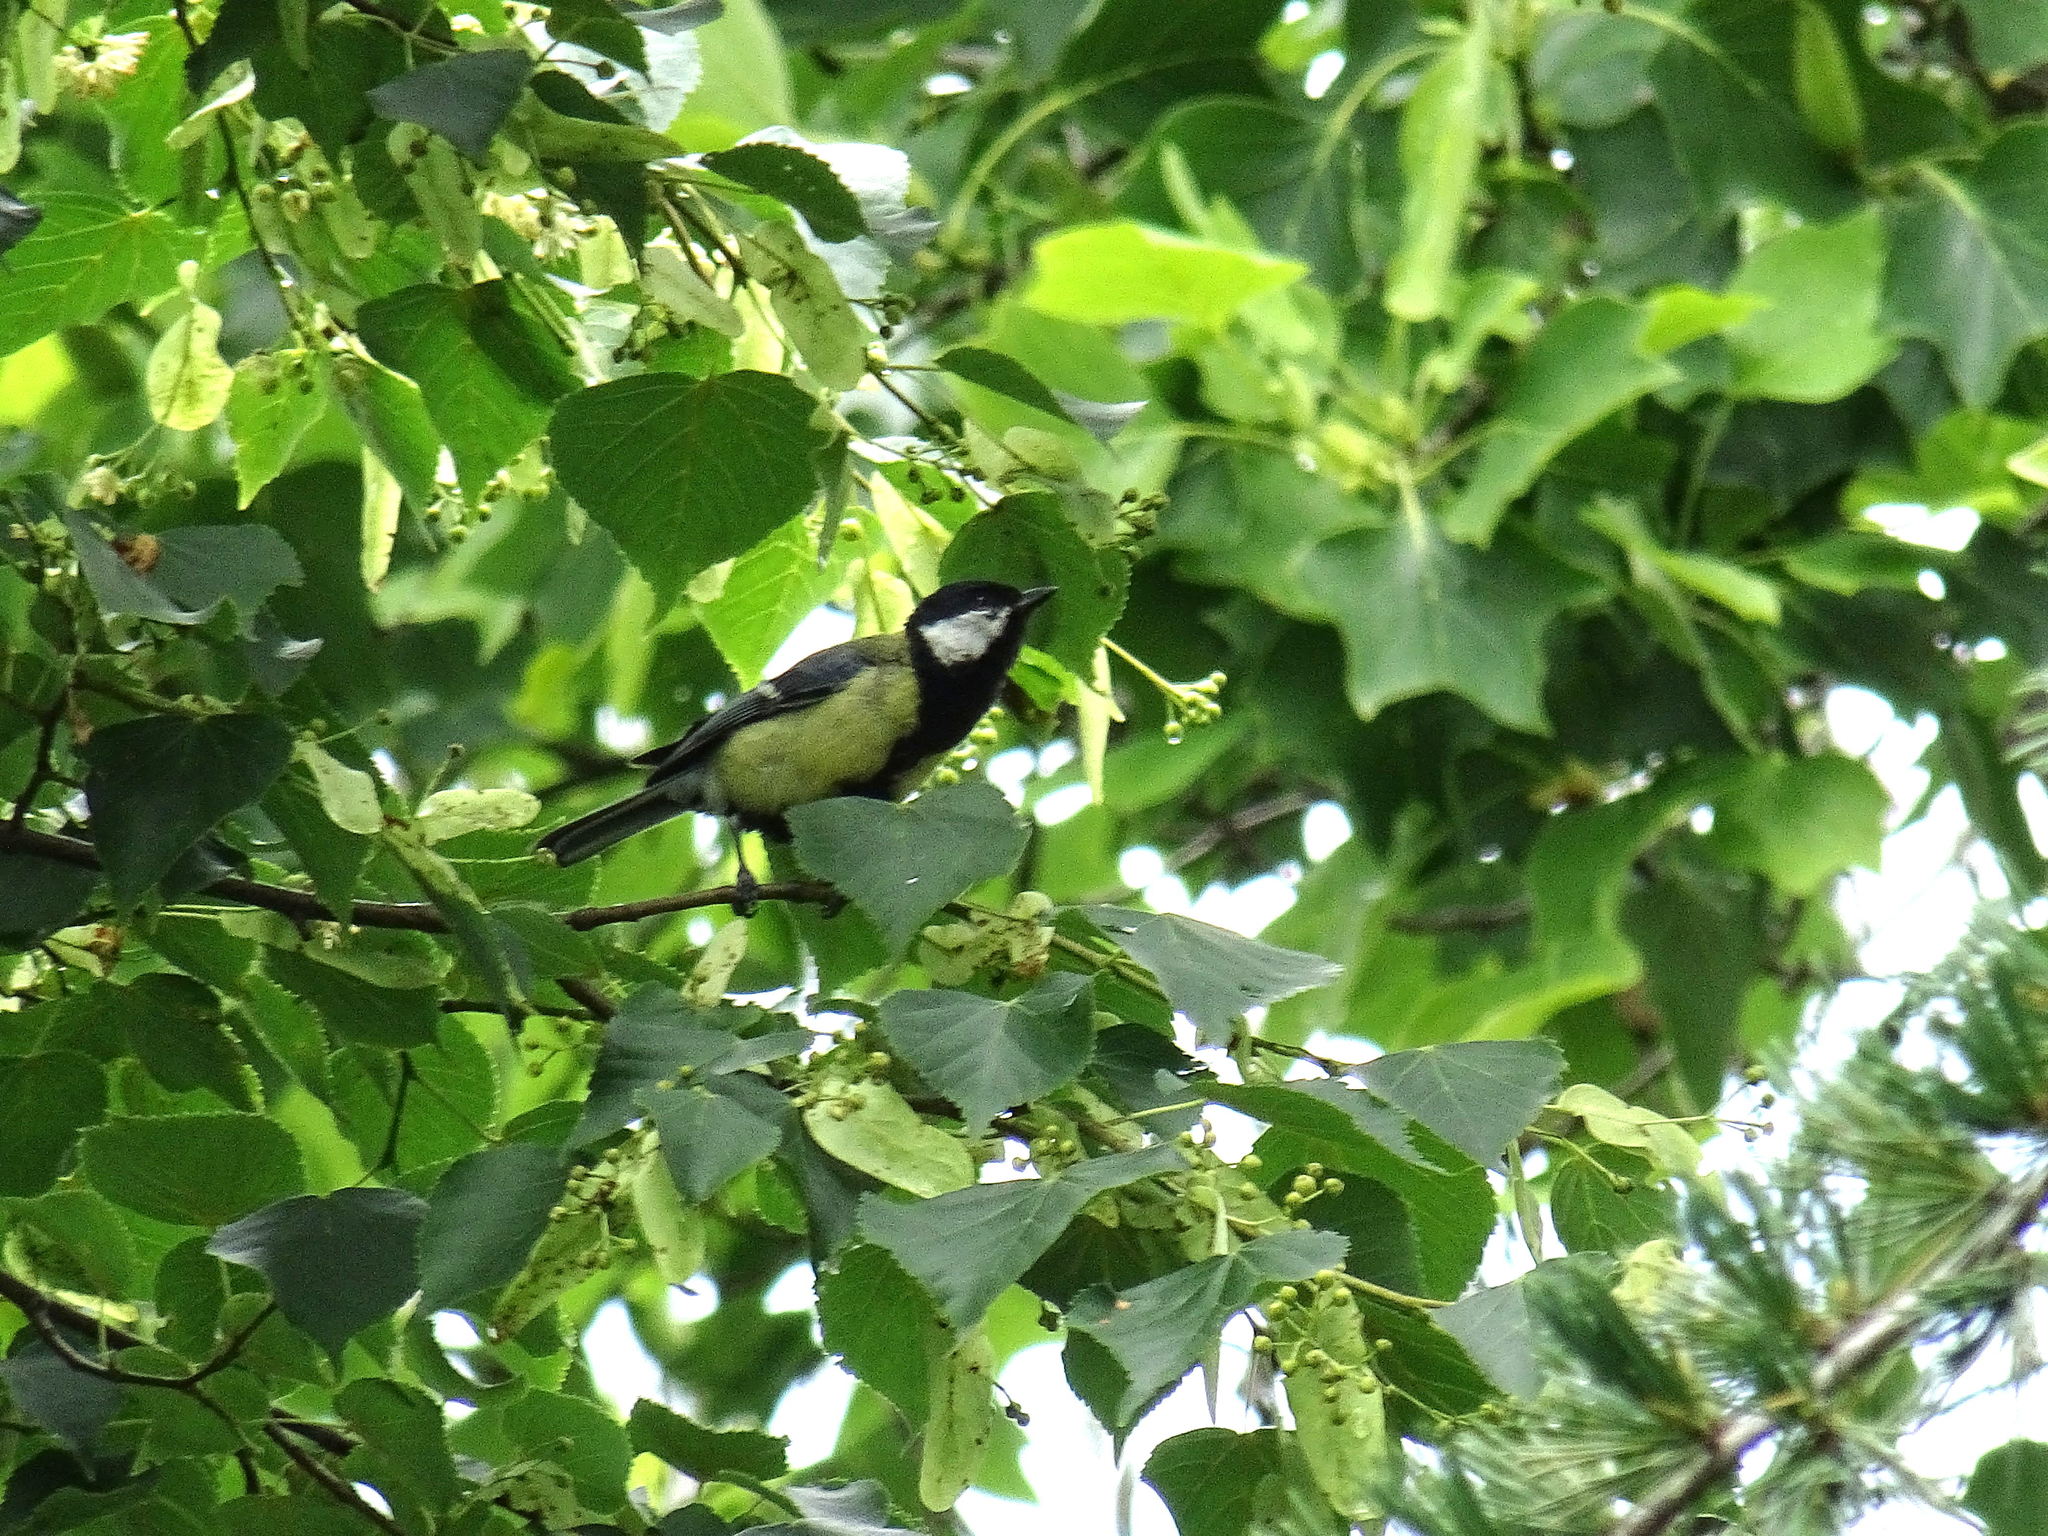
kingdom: Animalia
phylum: Chordata
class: Aves
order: Passeriformes
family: Paridae
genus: Parus
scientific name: Parus major
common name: Great tit
